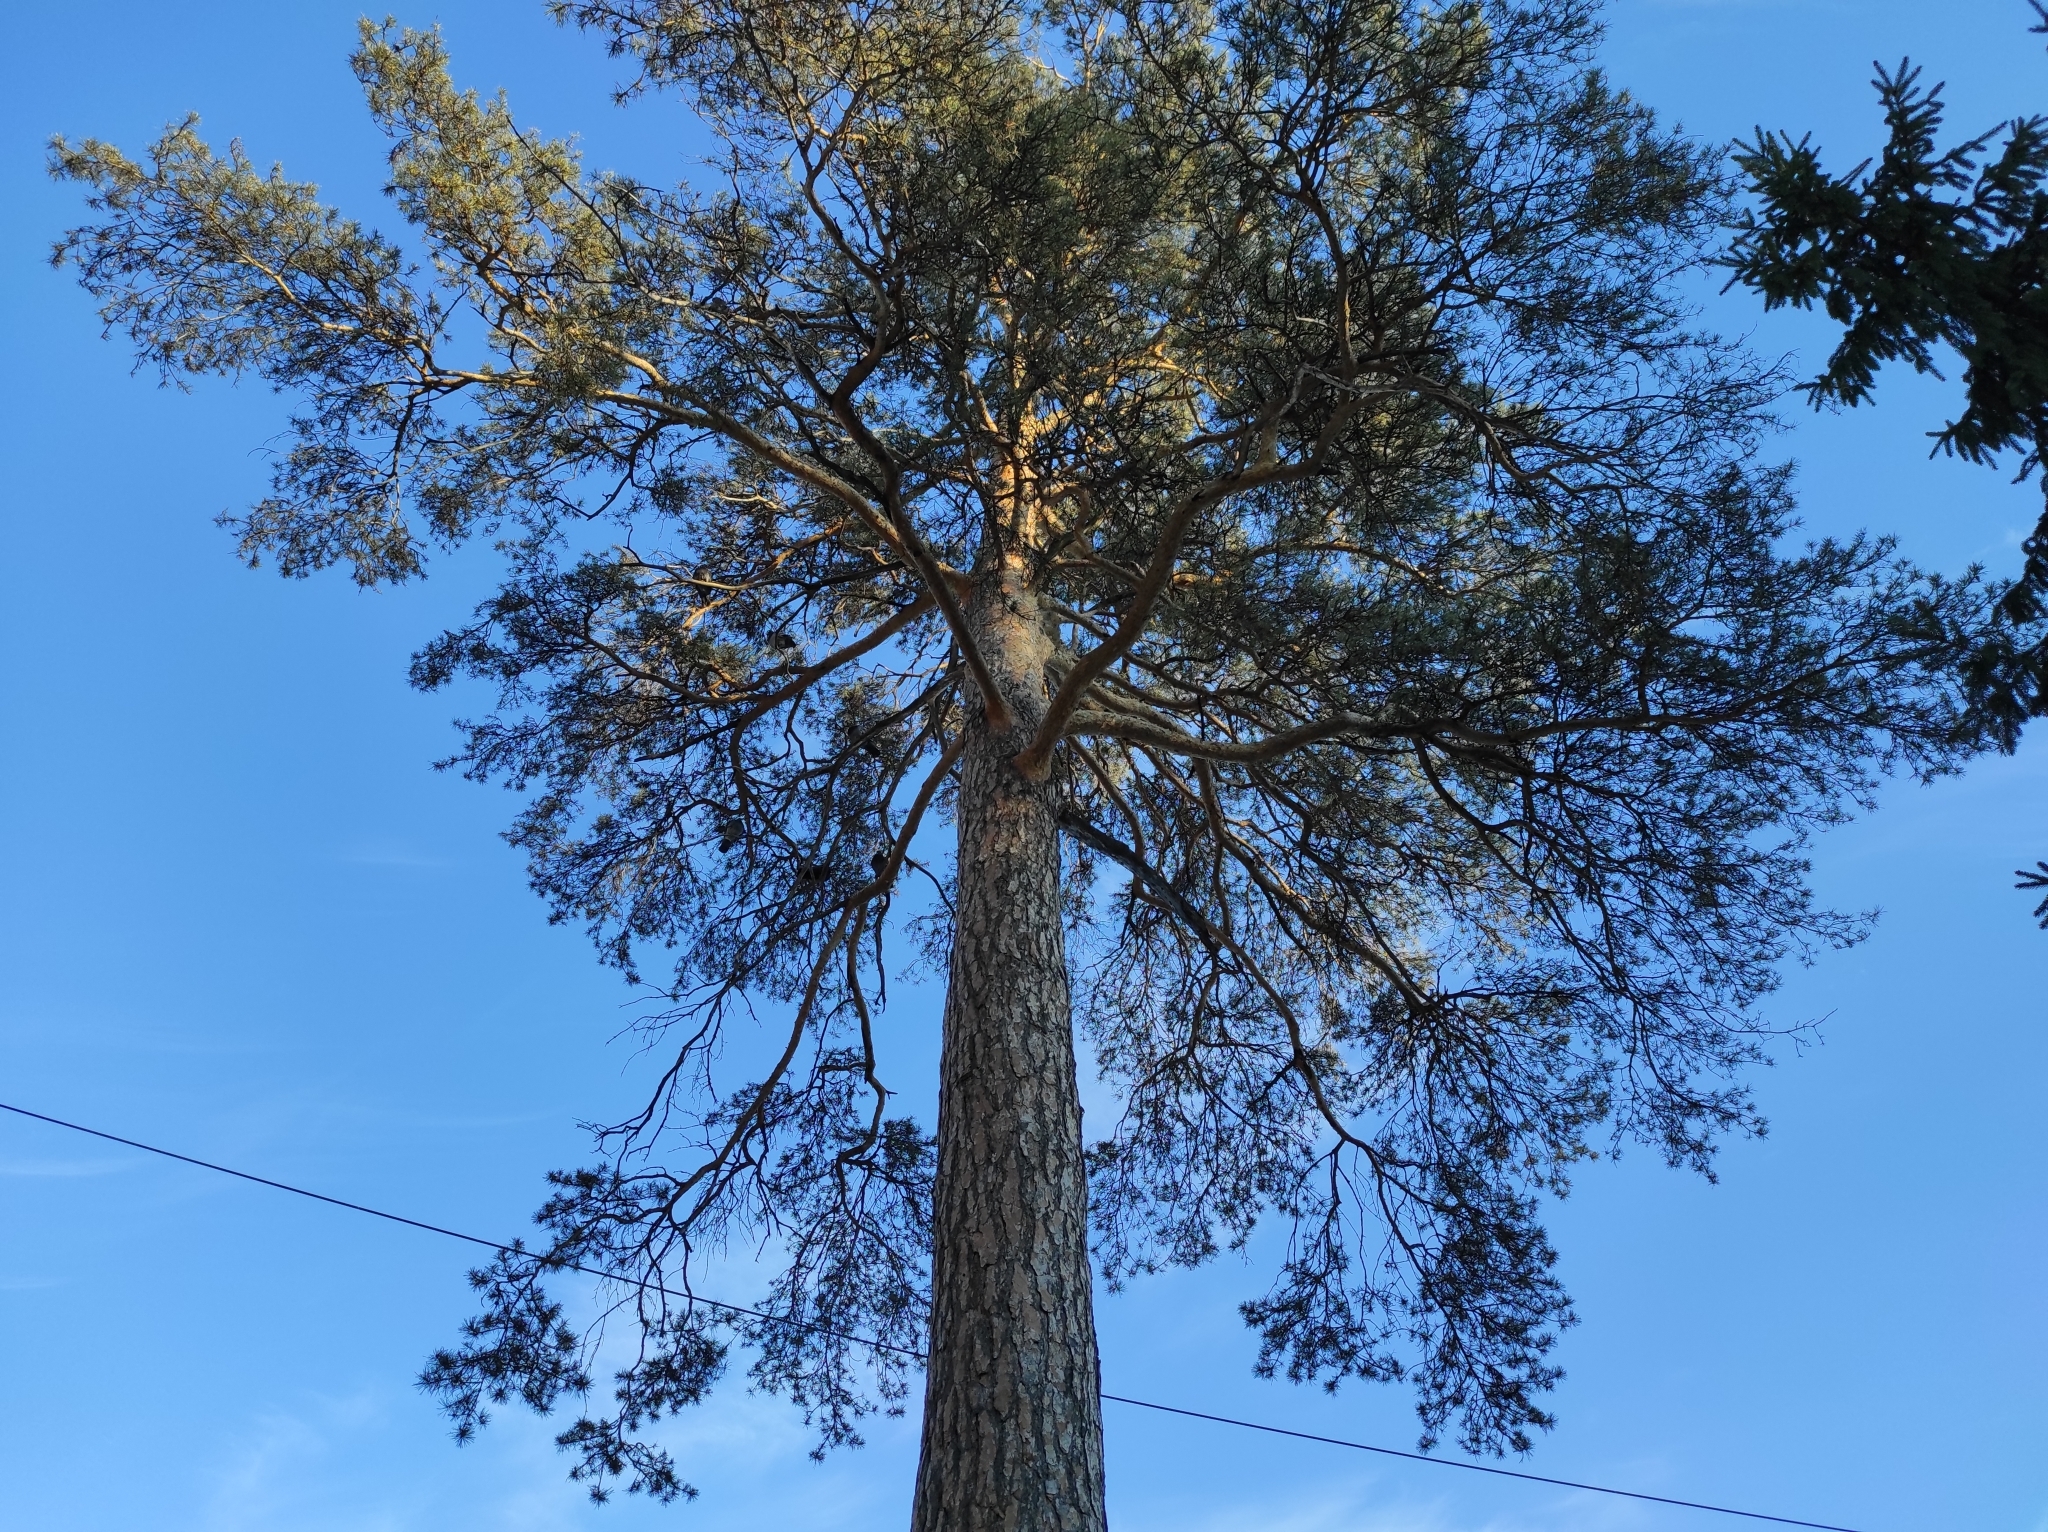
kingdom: Plantae
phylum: Tracheophyta
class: Pinopsida
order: Pinales
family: Pinaceae
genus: Pinus
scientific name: Pinus sylvestris
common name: Scots pine
